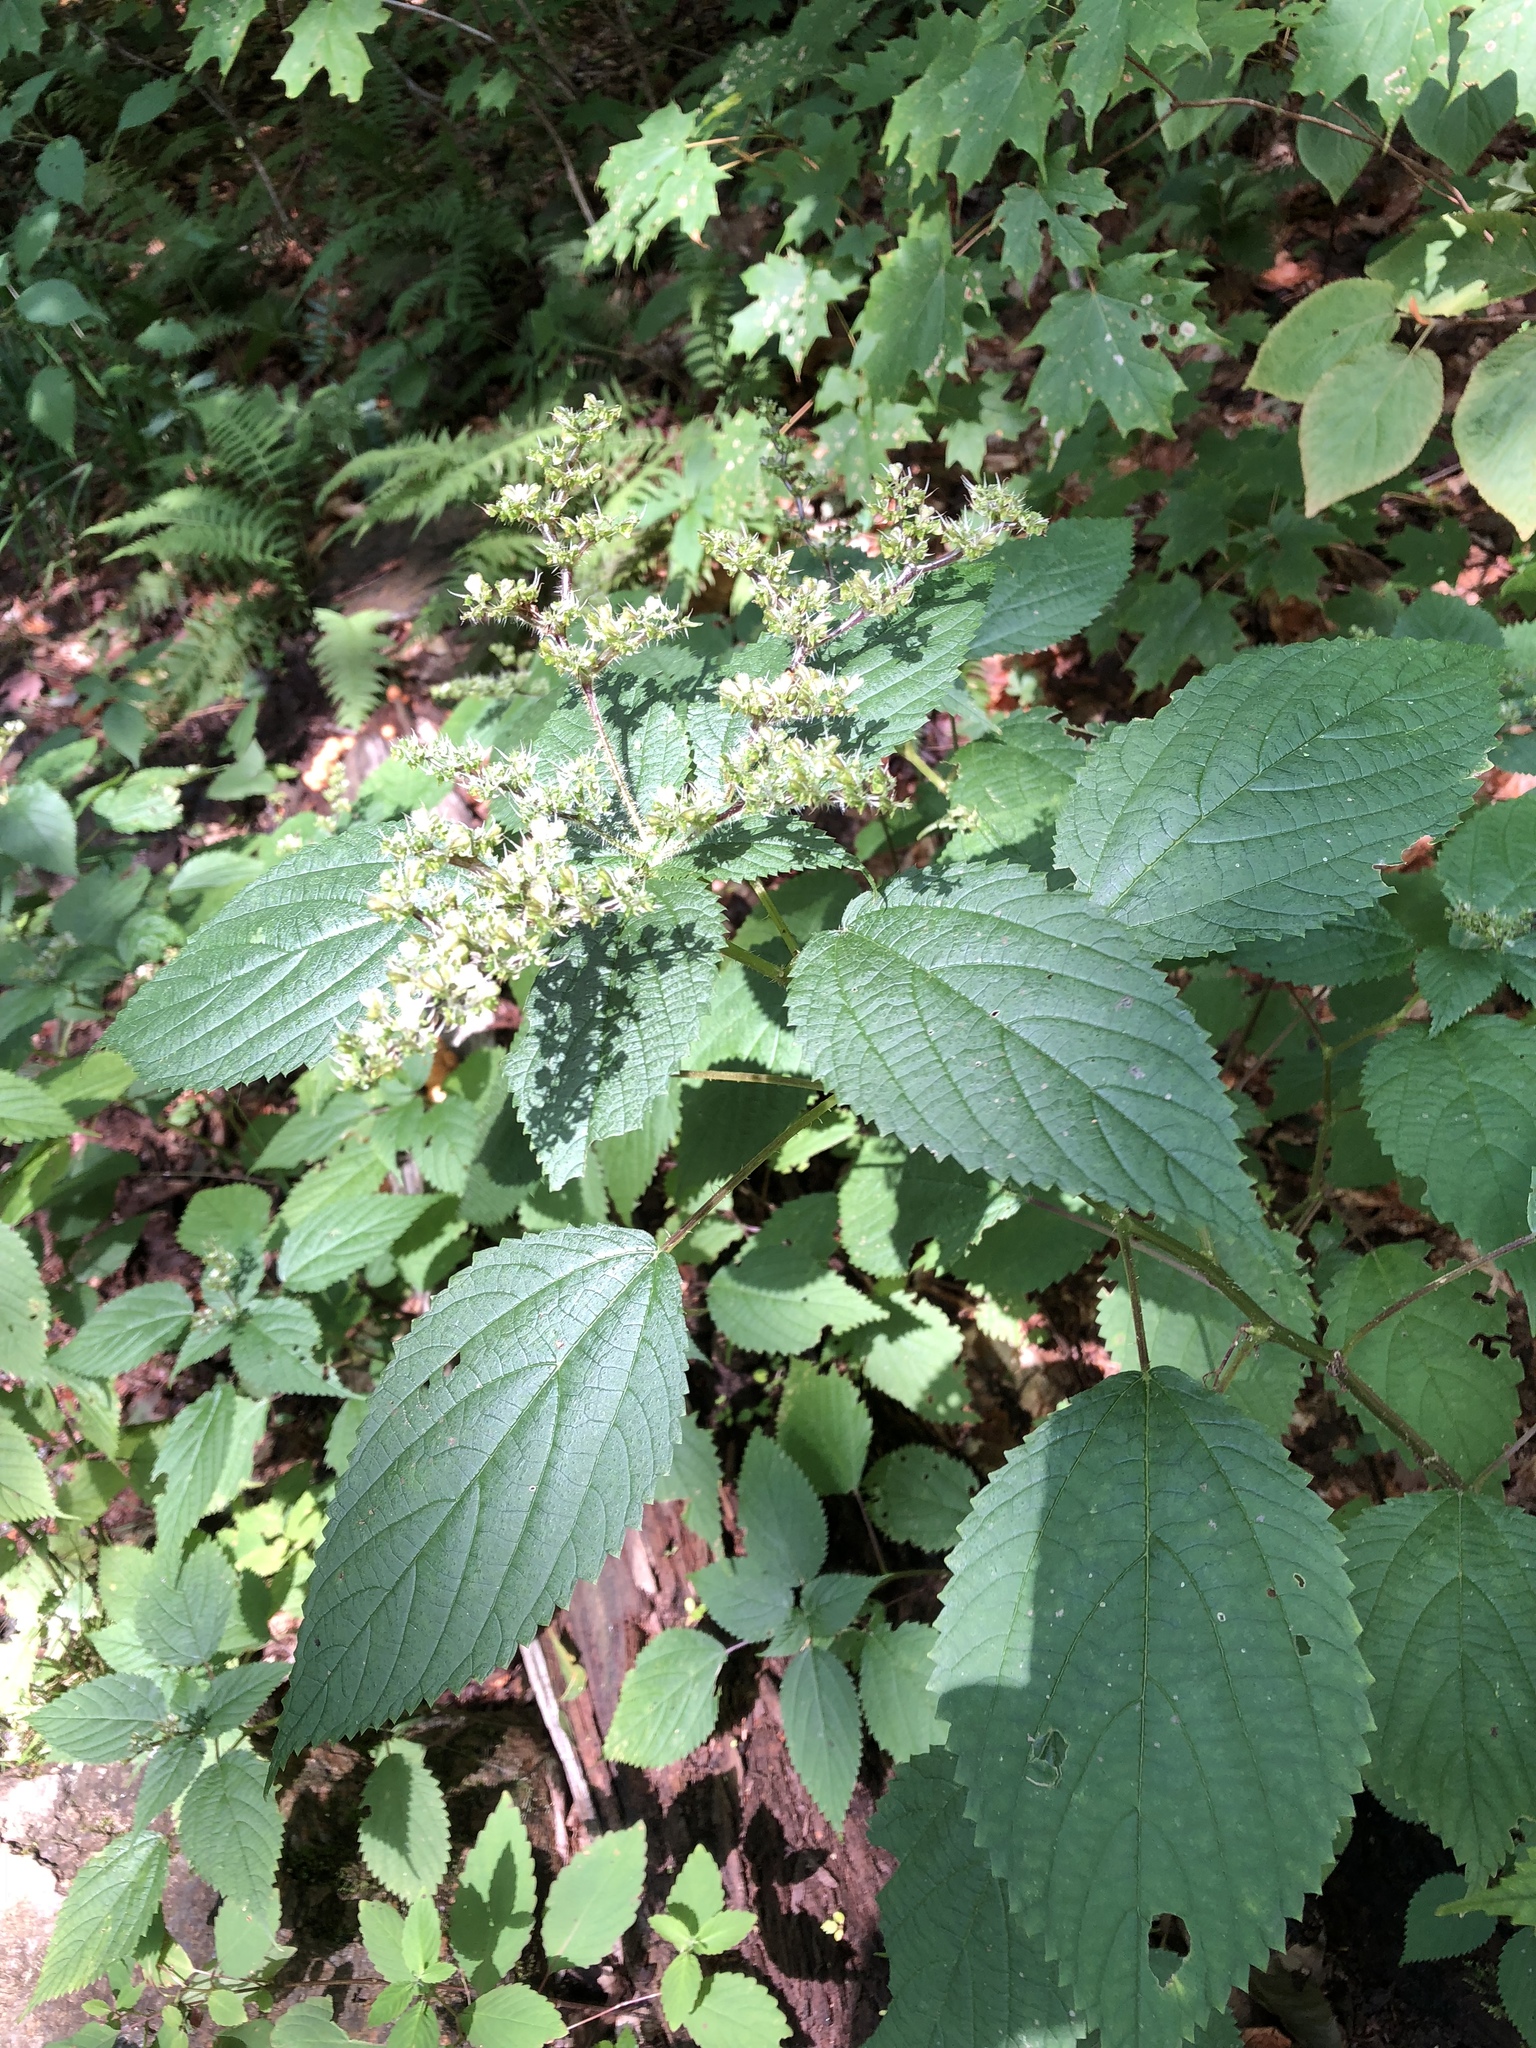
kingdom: Plantae
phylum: Tracheophyta
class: Magnoliopsida
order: Rosales
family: Urticaceae
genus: Laportea
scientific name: Laportea canadensis
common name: Canada nettle
